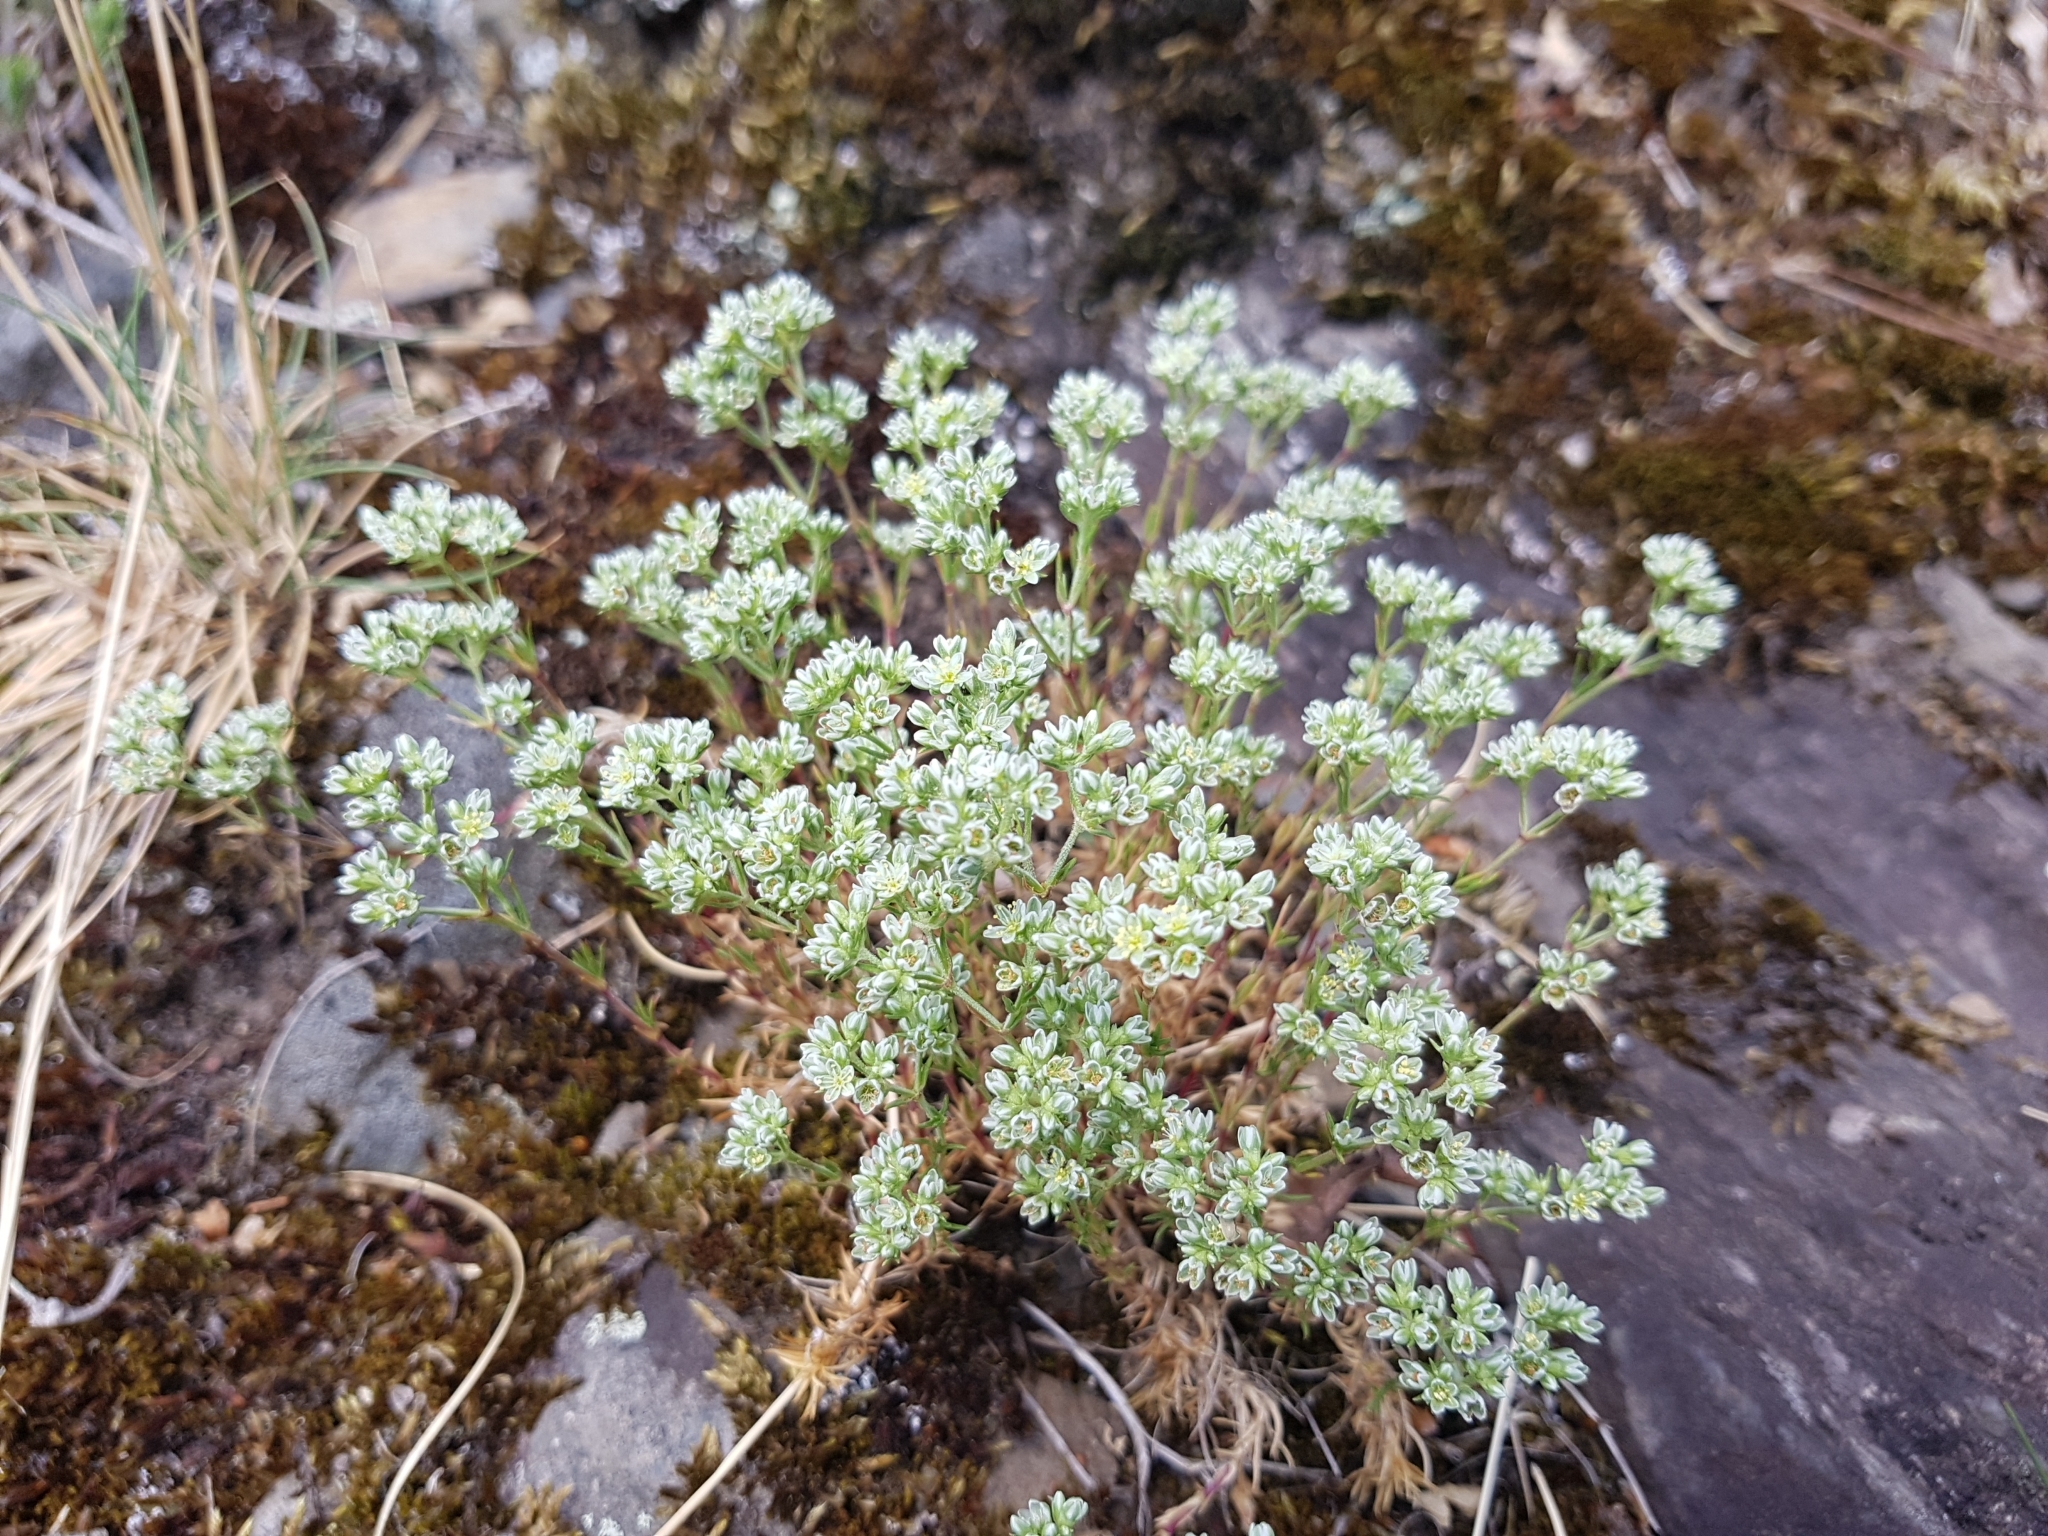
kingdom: Plantae
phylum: Tracheophyta
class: Magnoliopsida
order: Caryophyllales
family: Caryophyllaceae
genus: Scleranthus
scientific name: Scleranthus perennis
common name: Perennial knawel
